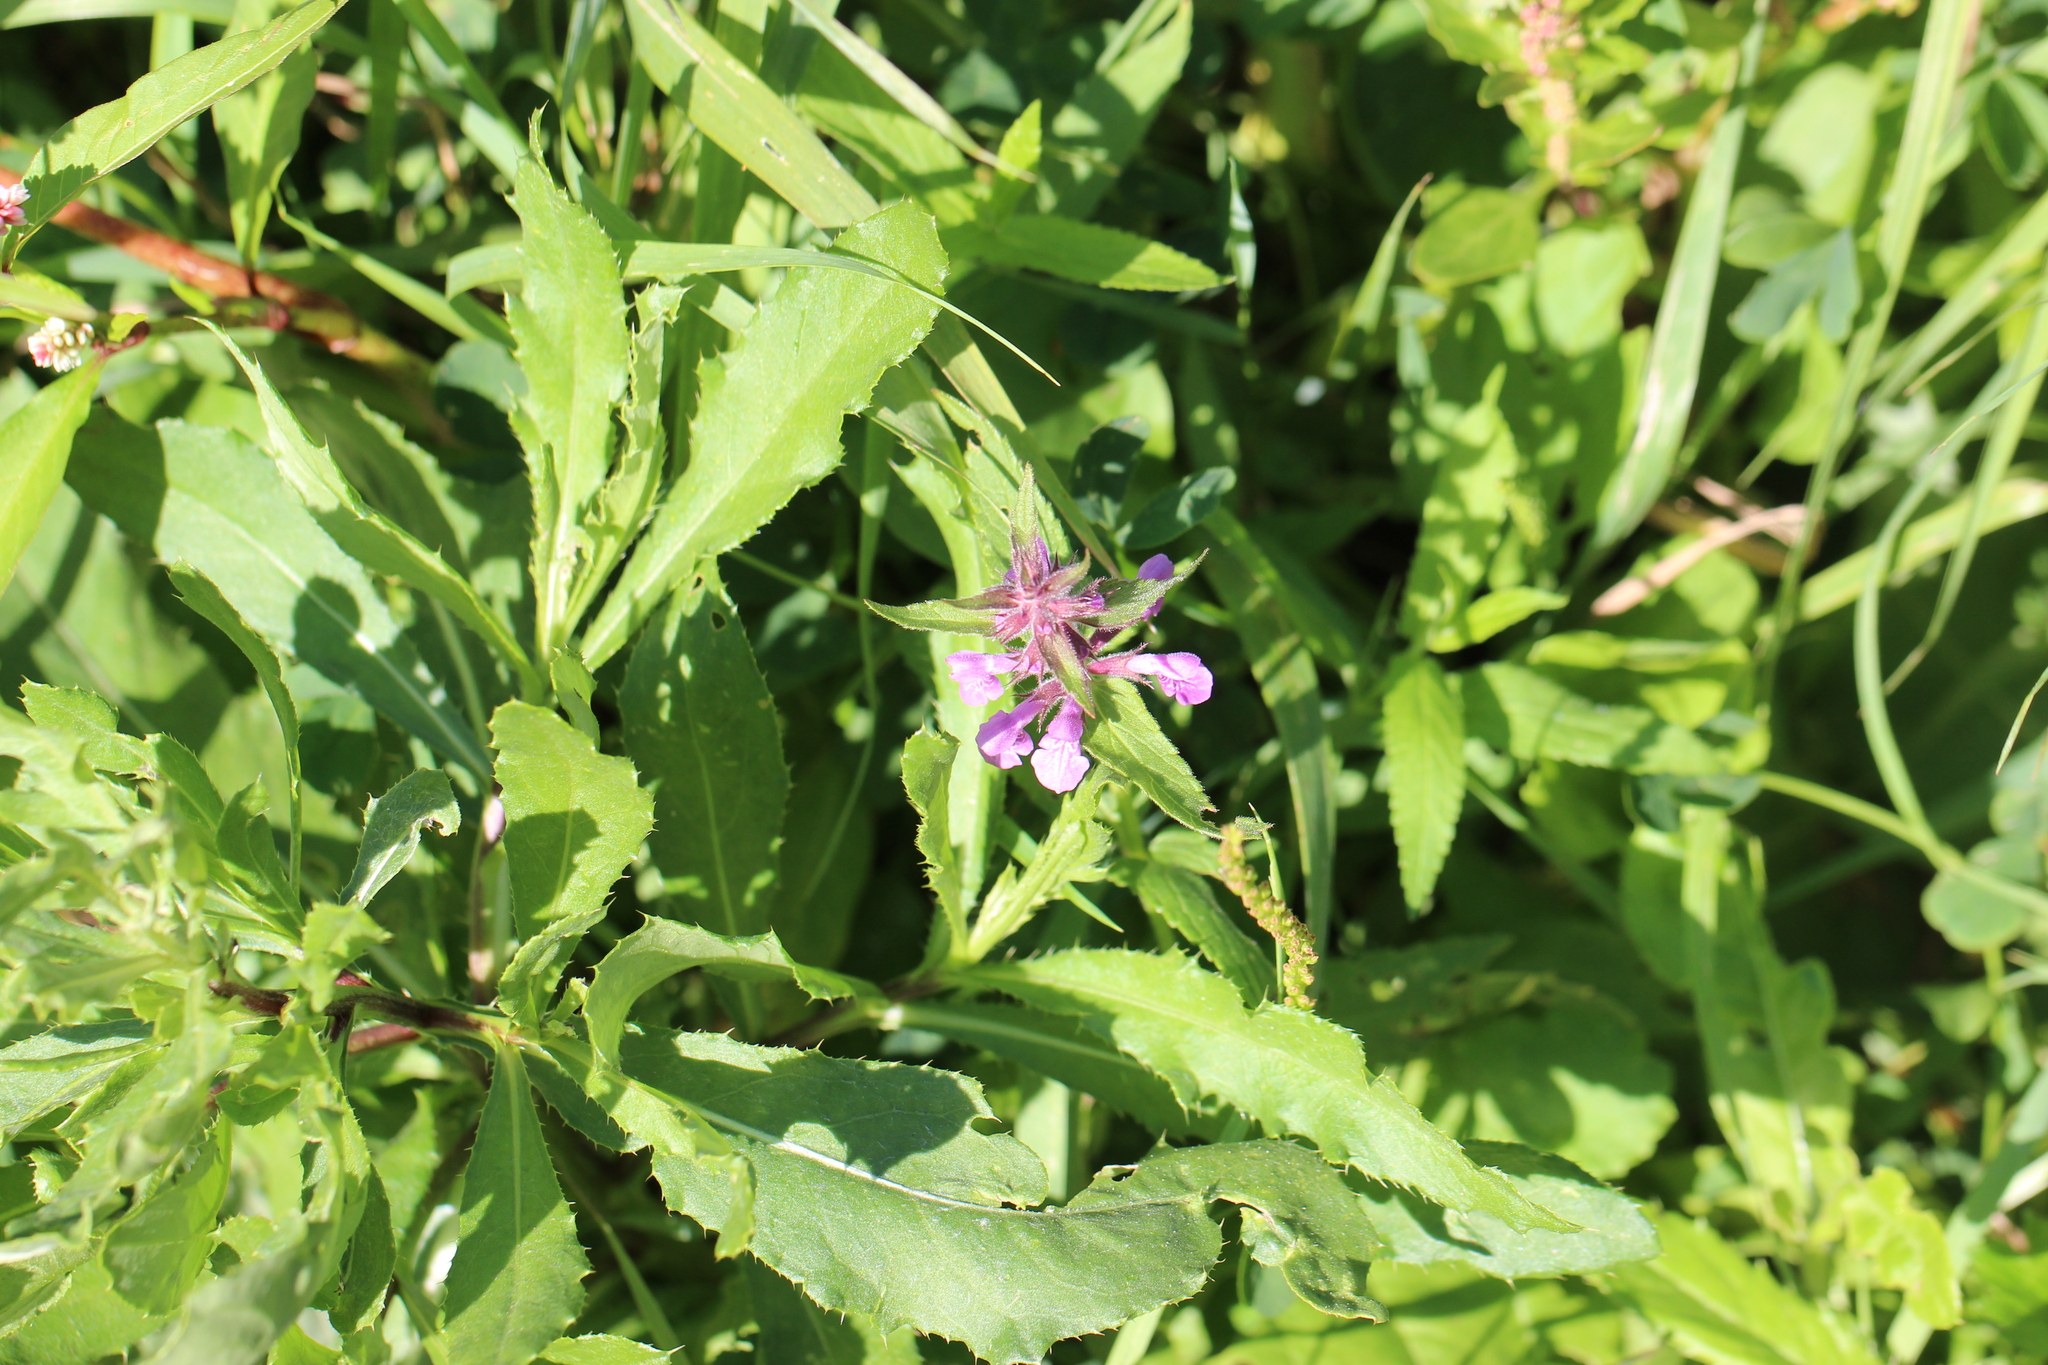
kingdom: Plantae
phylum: Tracheophyta
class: Magnoliopsida
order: Lamiales
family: Lamiaceae
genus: Stachys
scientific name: Stachys palustris
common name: Marsh woundwort
